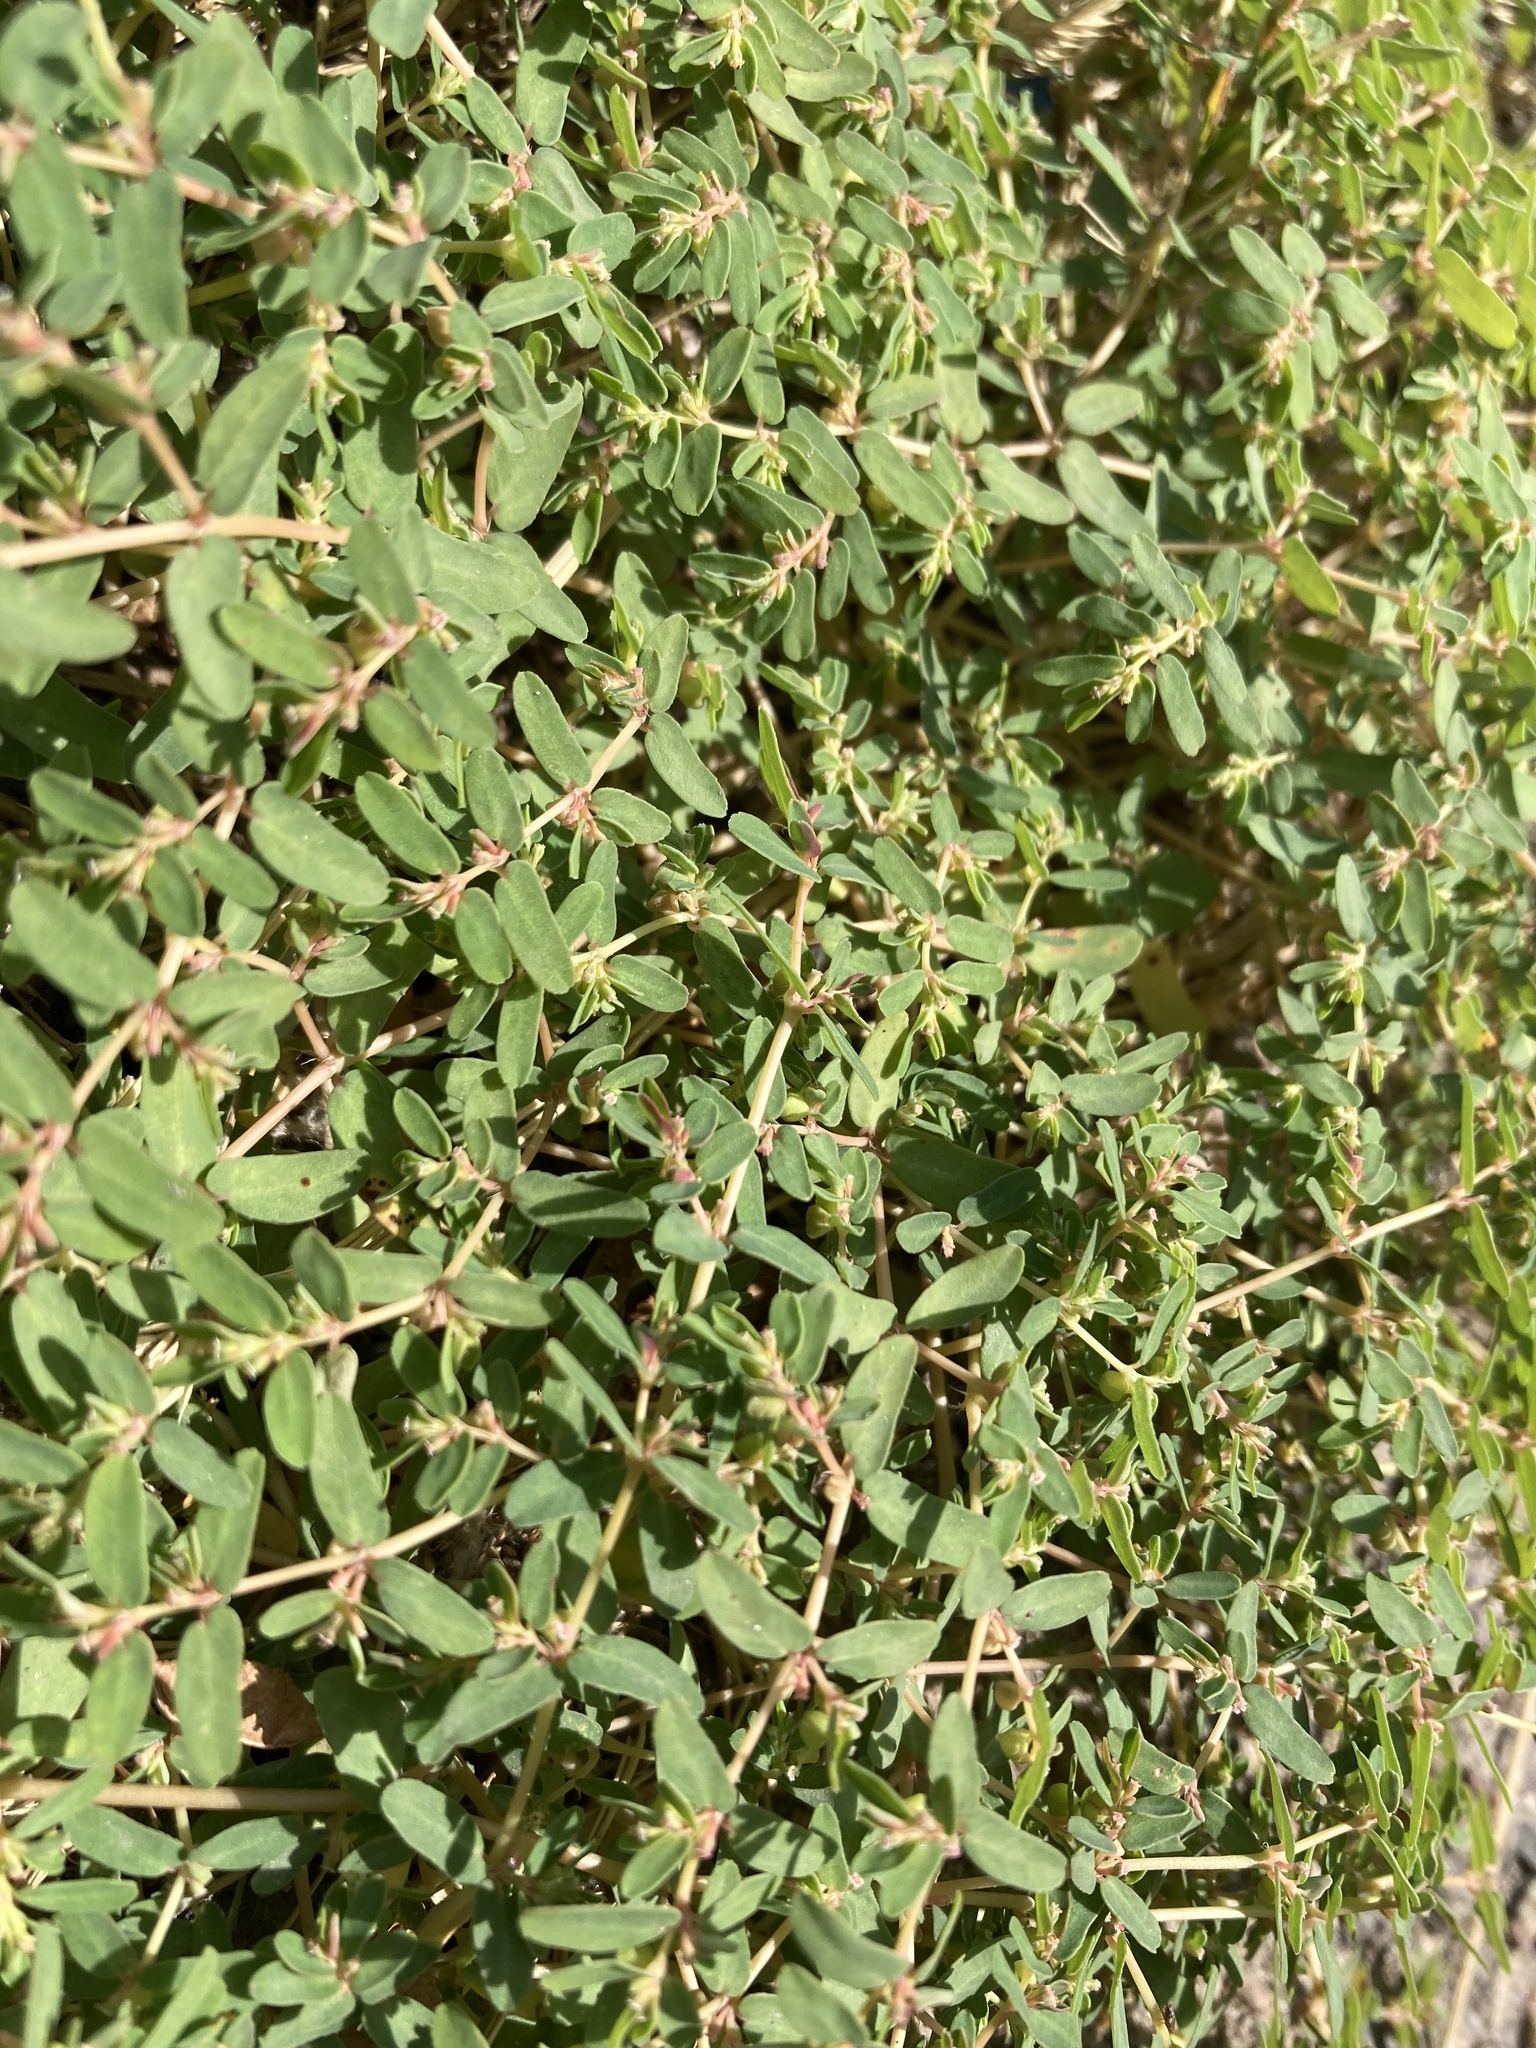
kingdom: Plantae
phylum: Tracheophyta
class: Magnoliopsida
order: Malpighiales
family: Euphorbiaceae
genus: Euphorbia
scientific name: Euphorbia glyptosperma
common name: Corrugate-seeded spurge
